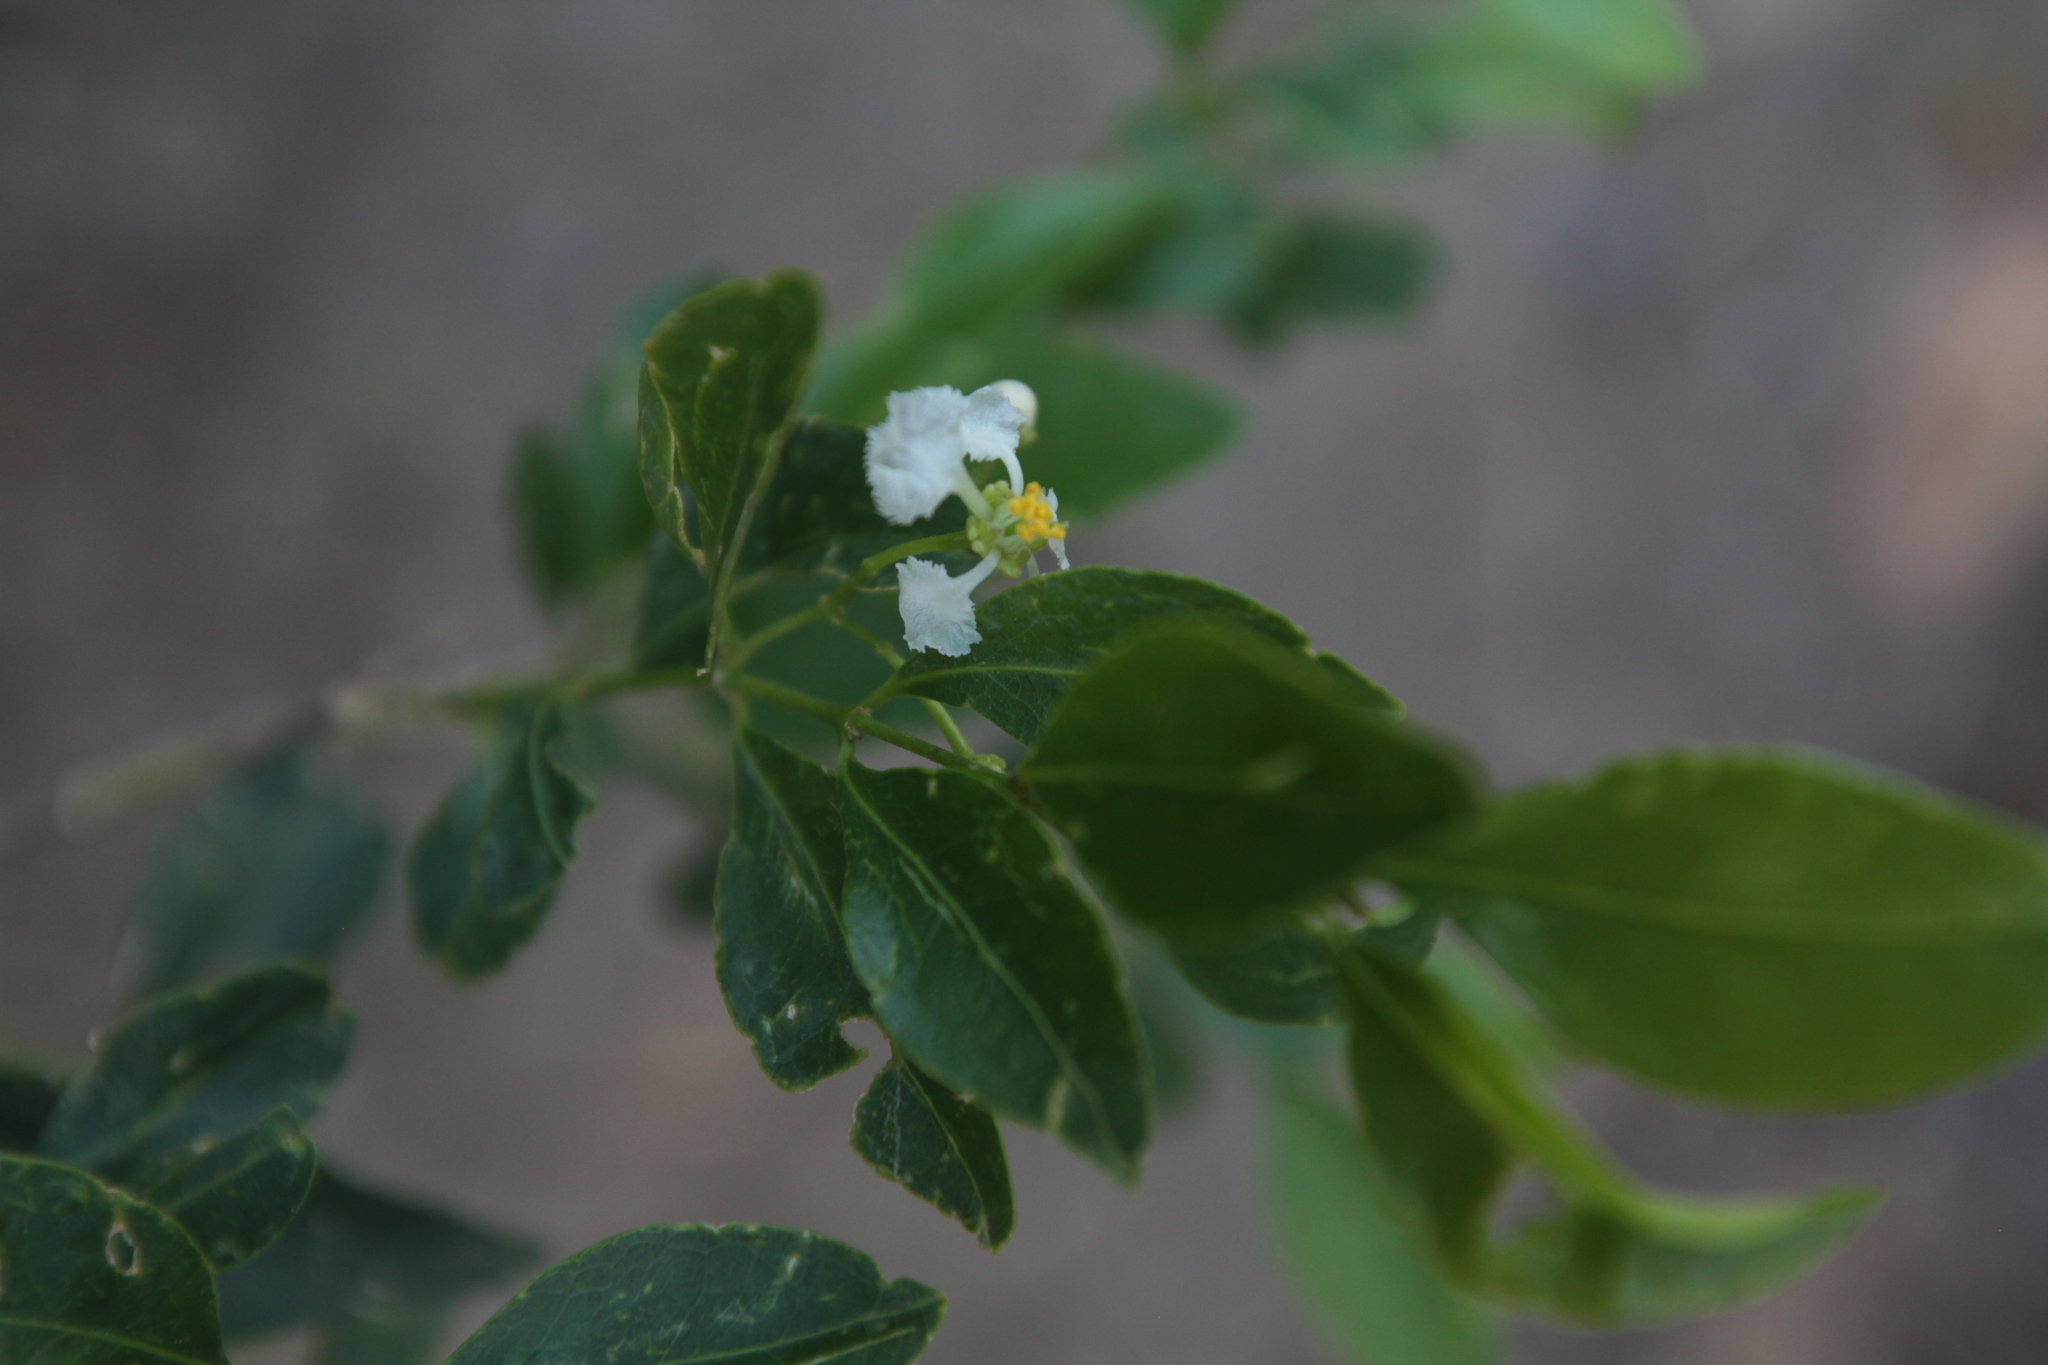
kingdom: Plantae
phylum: Tracheophyta
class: Magnoliopsida
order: Malpighiales
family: Malpighiaceae
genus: Malpighia
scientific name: Malpighia urens
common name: Cow-itch-cherry
